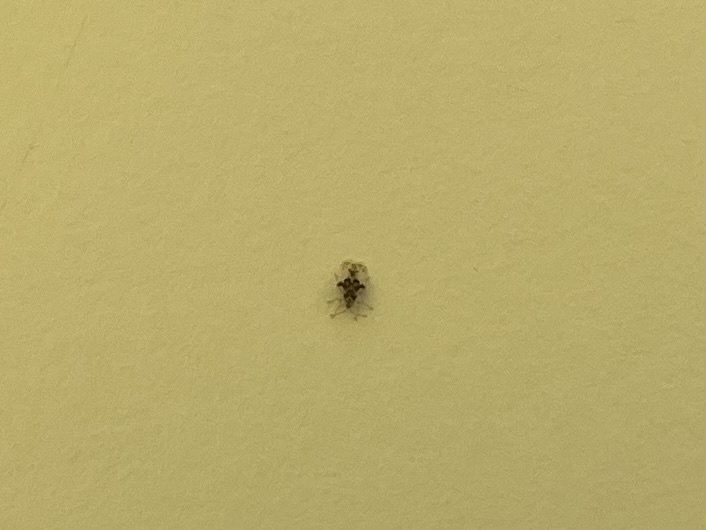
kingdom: Animalia
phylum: Arthropoda
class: Insecta
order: Hemiptera
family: Tingidae
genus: Corythucha
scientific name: Corythucha arcuata
